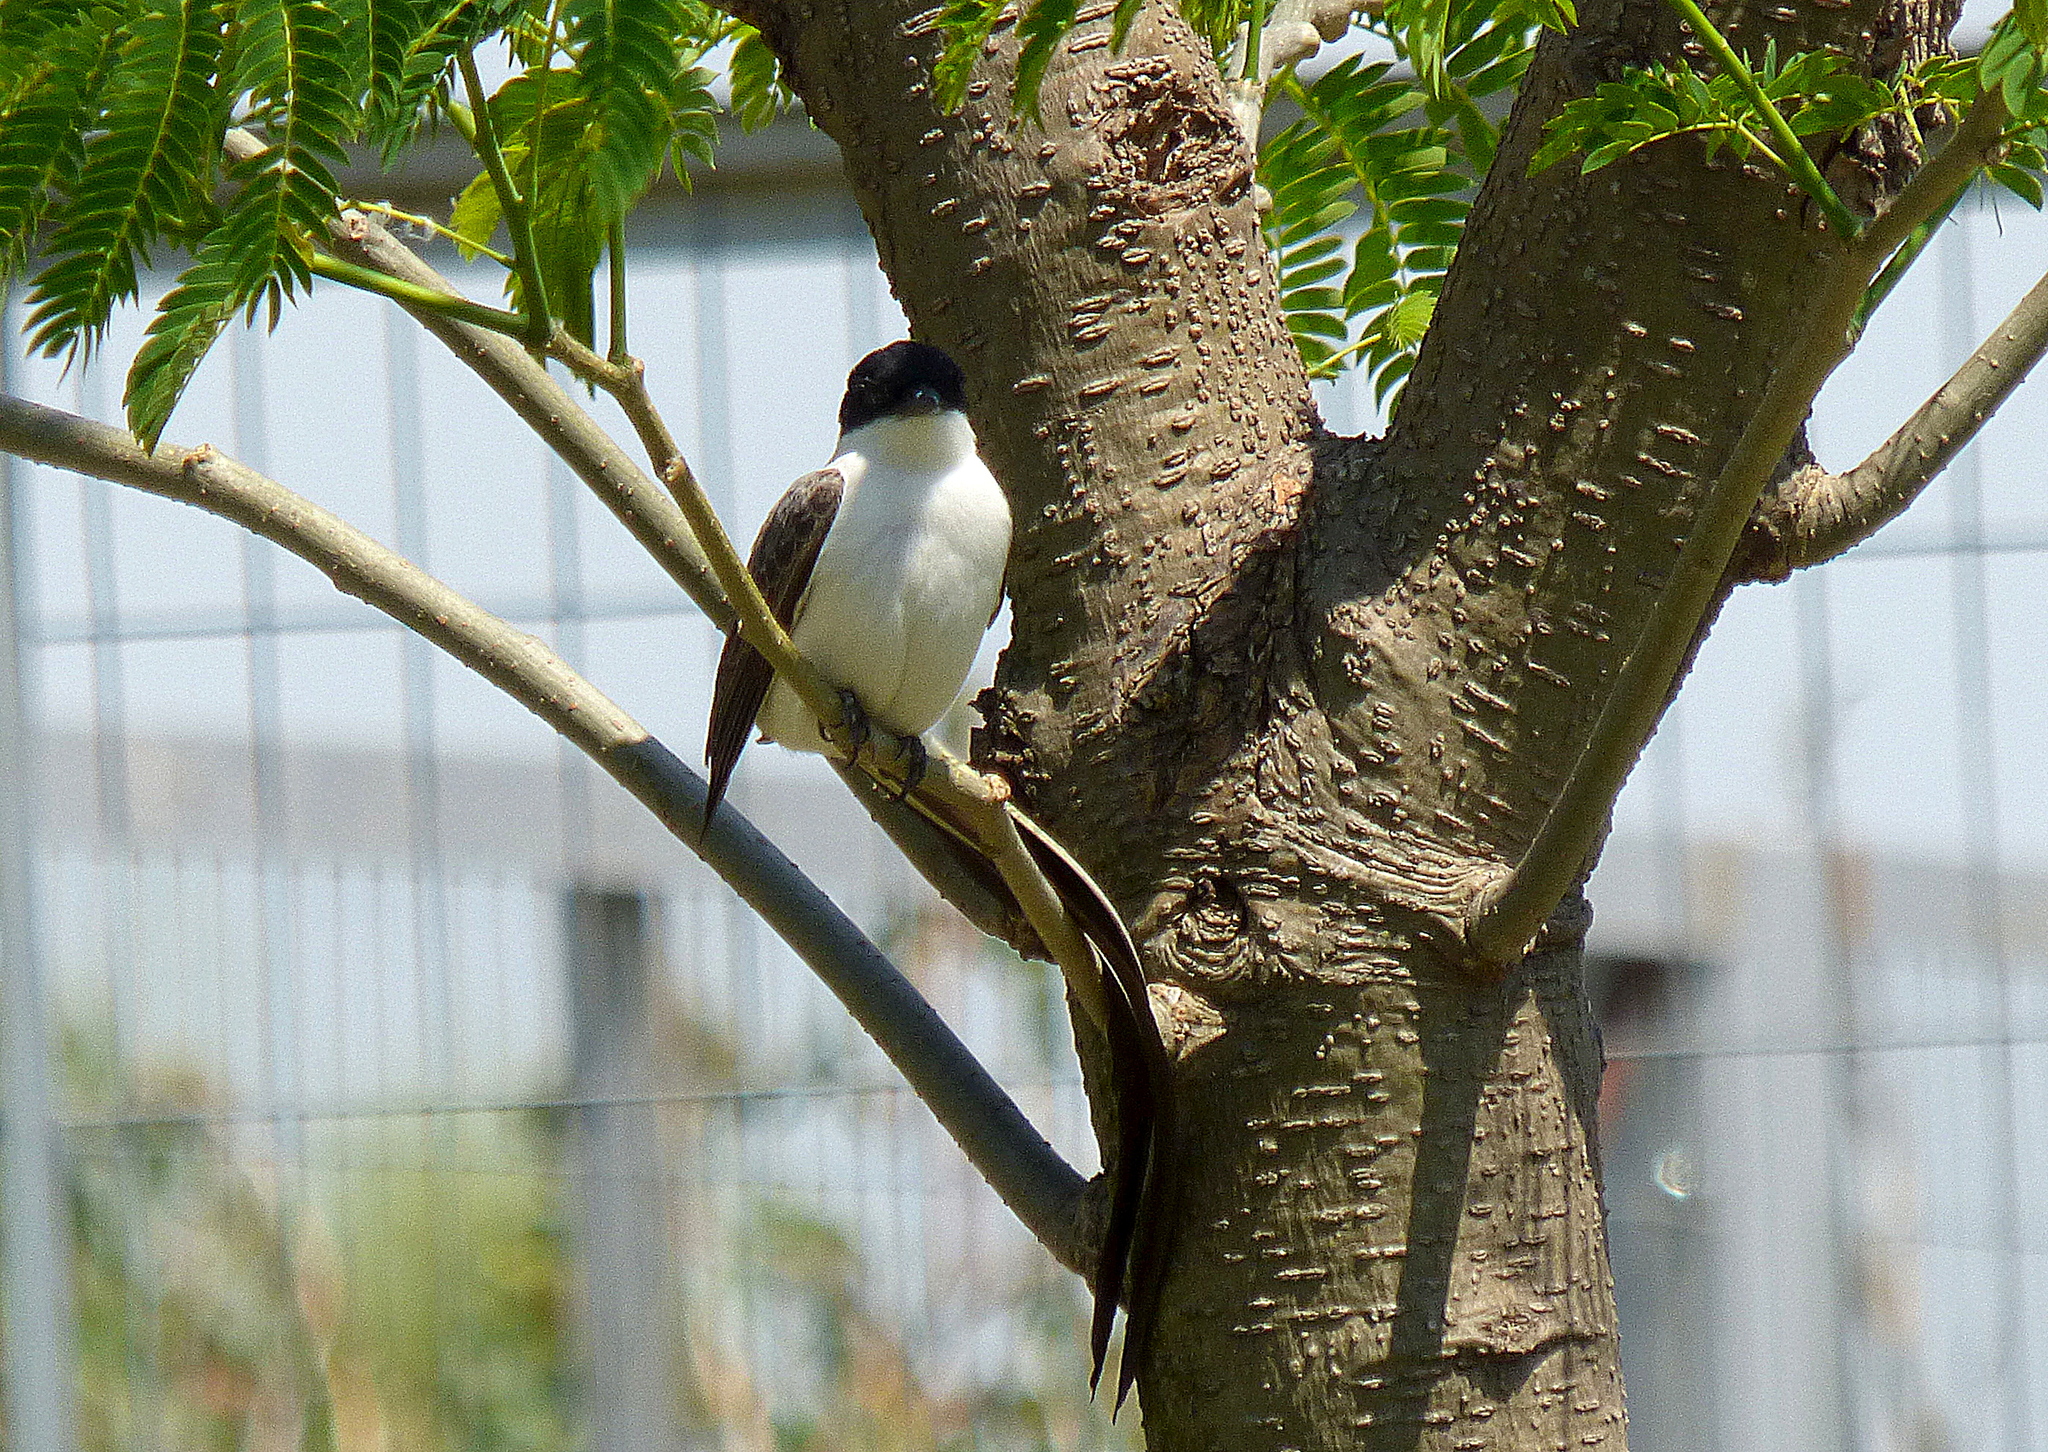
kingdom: Animalia
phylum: Chordata
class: Aves
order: Passeriformes
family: Tyrannidae
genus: Tyrannus
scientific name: Tyrannus savana
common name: Fork-tailed flycatcher
